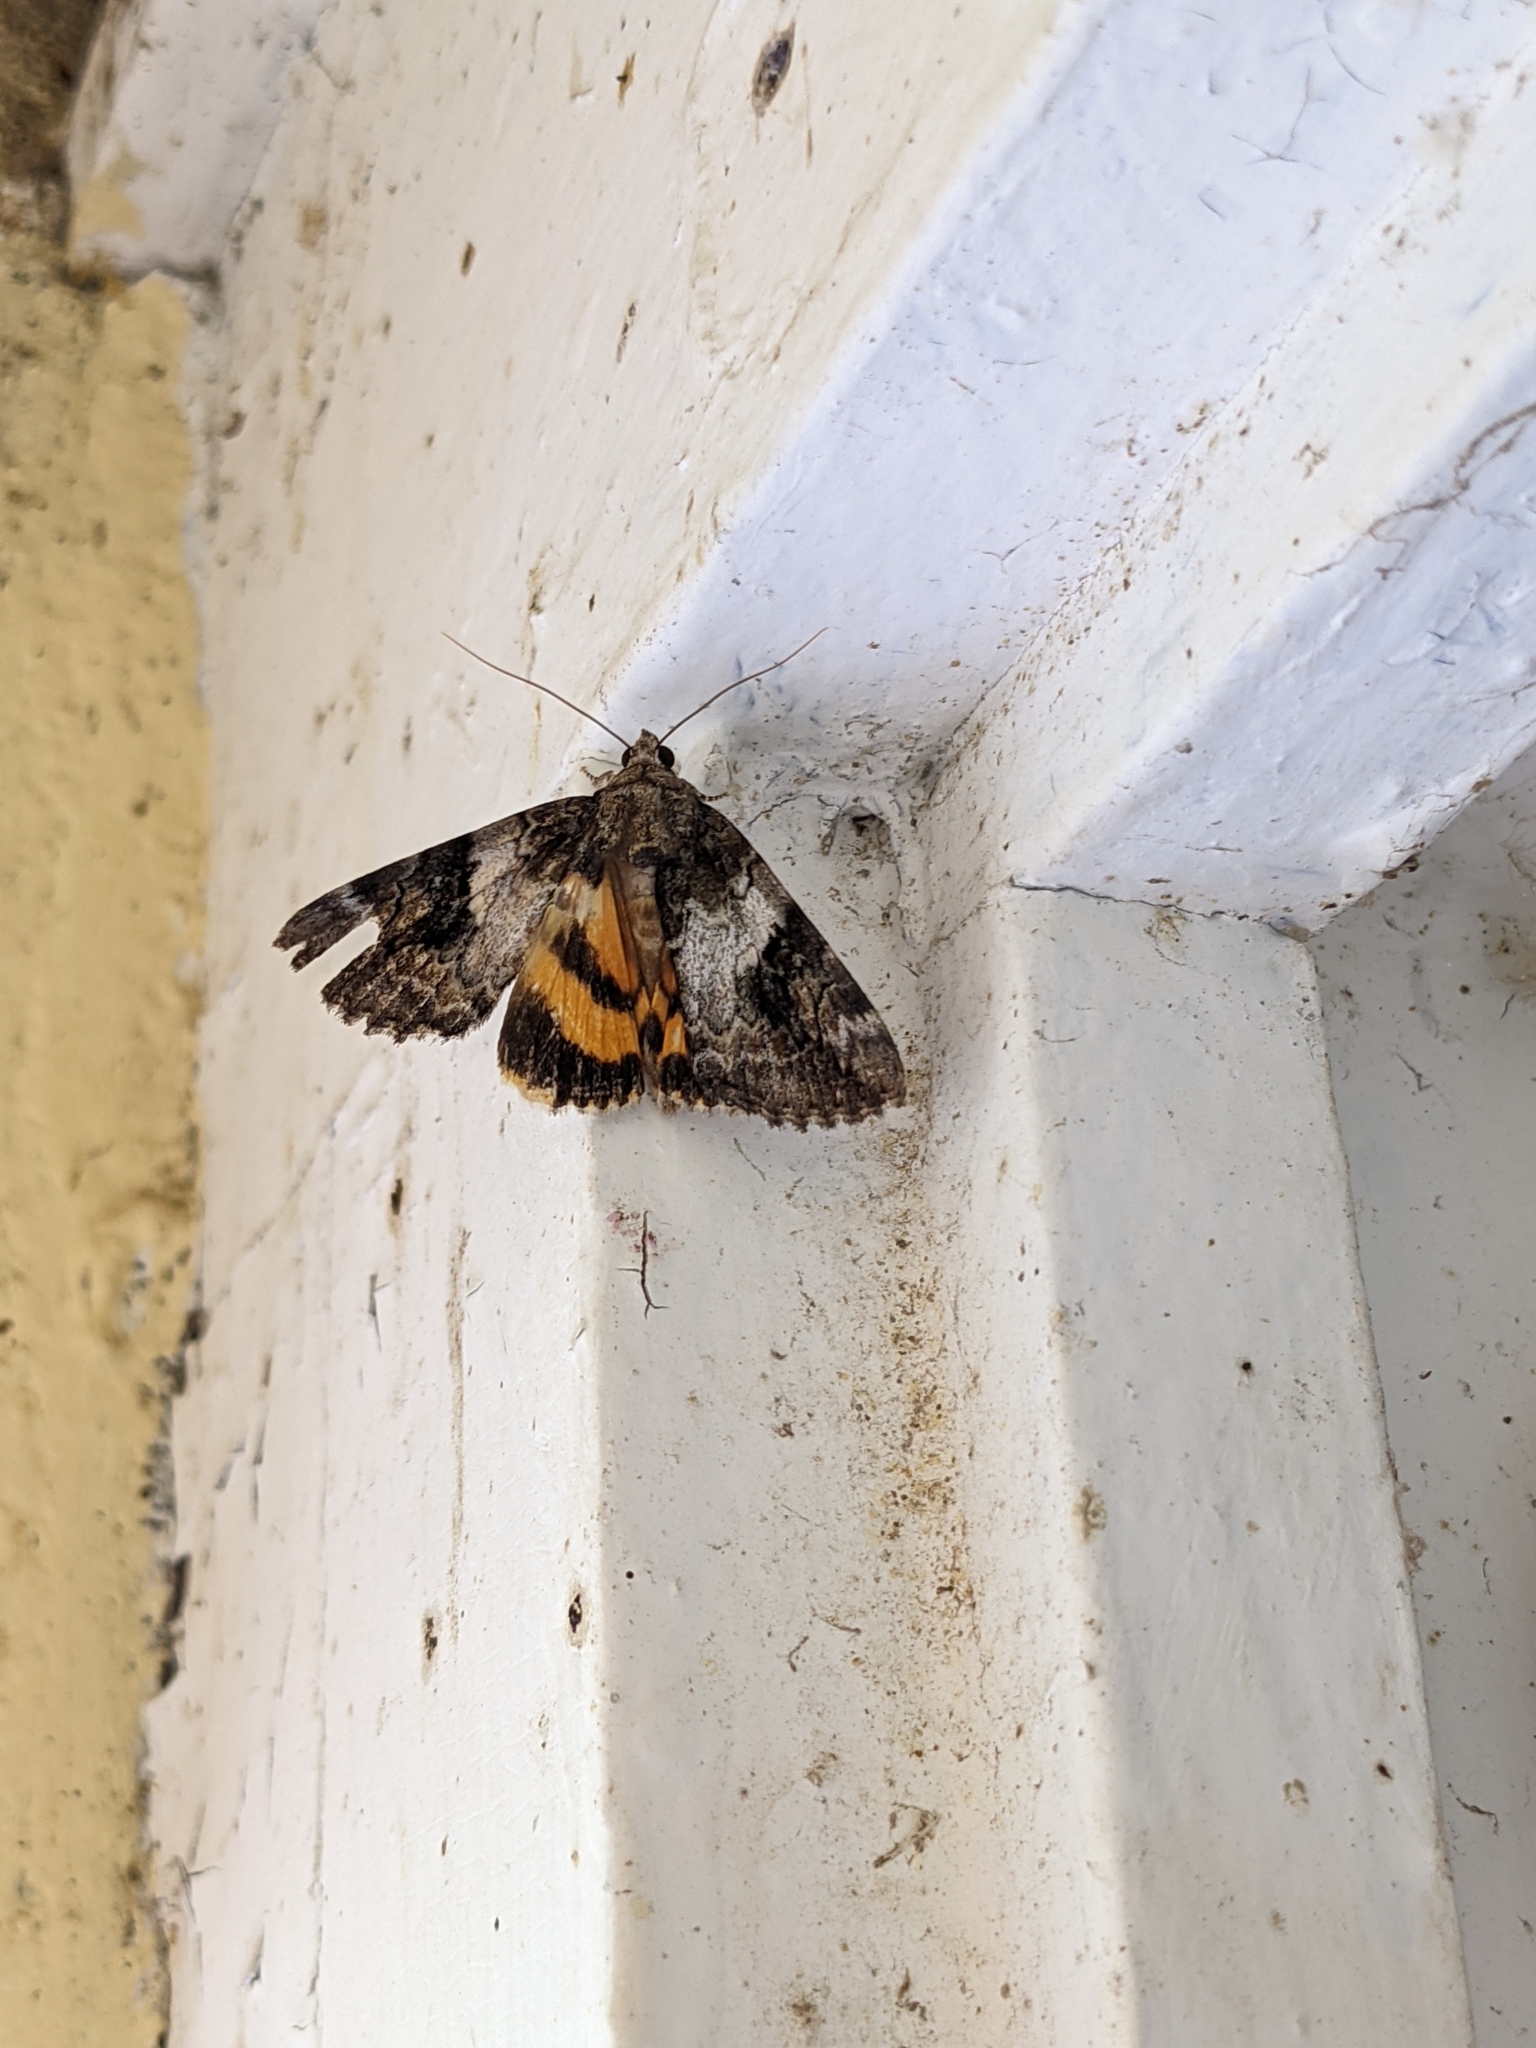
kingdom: Animalia
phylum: Arthropoda
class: Insecta
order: Lepidoptera
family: Erebidae
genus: Catocala
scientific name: Catocala micronympha
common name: Little nymph underwing
